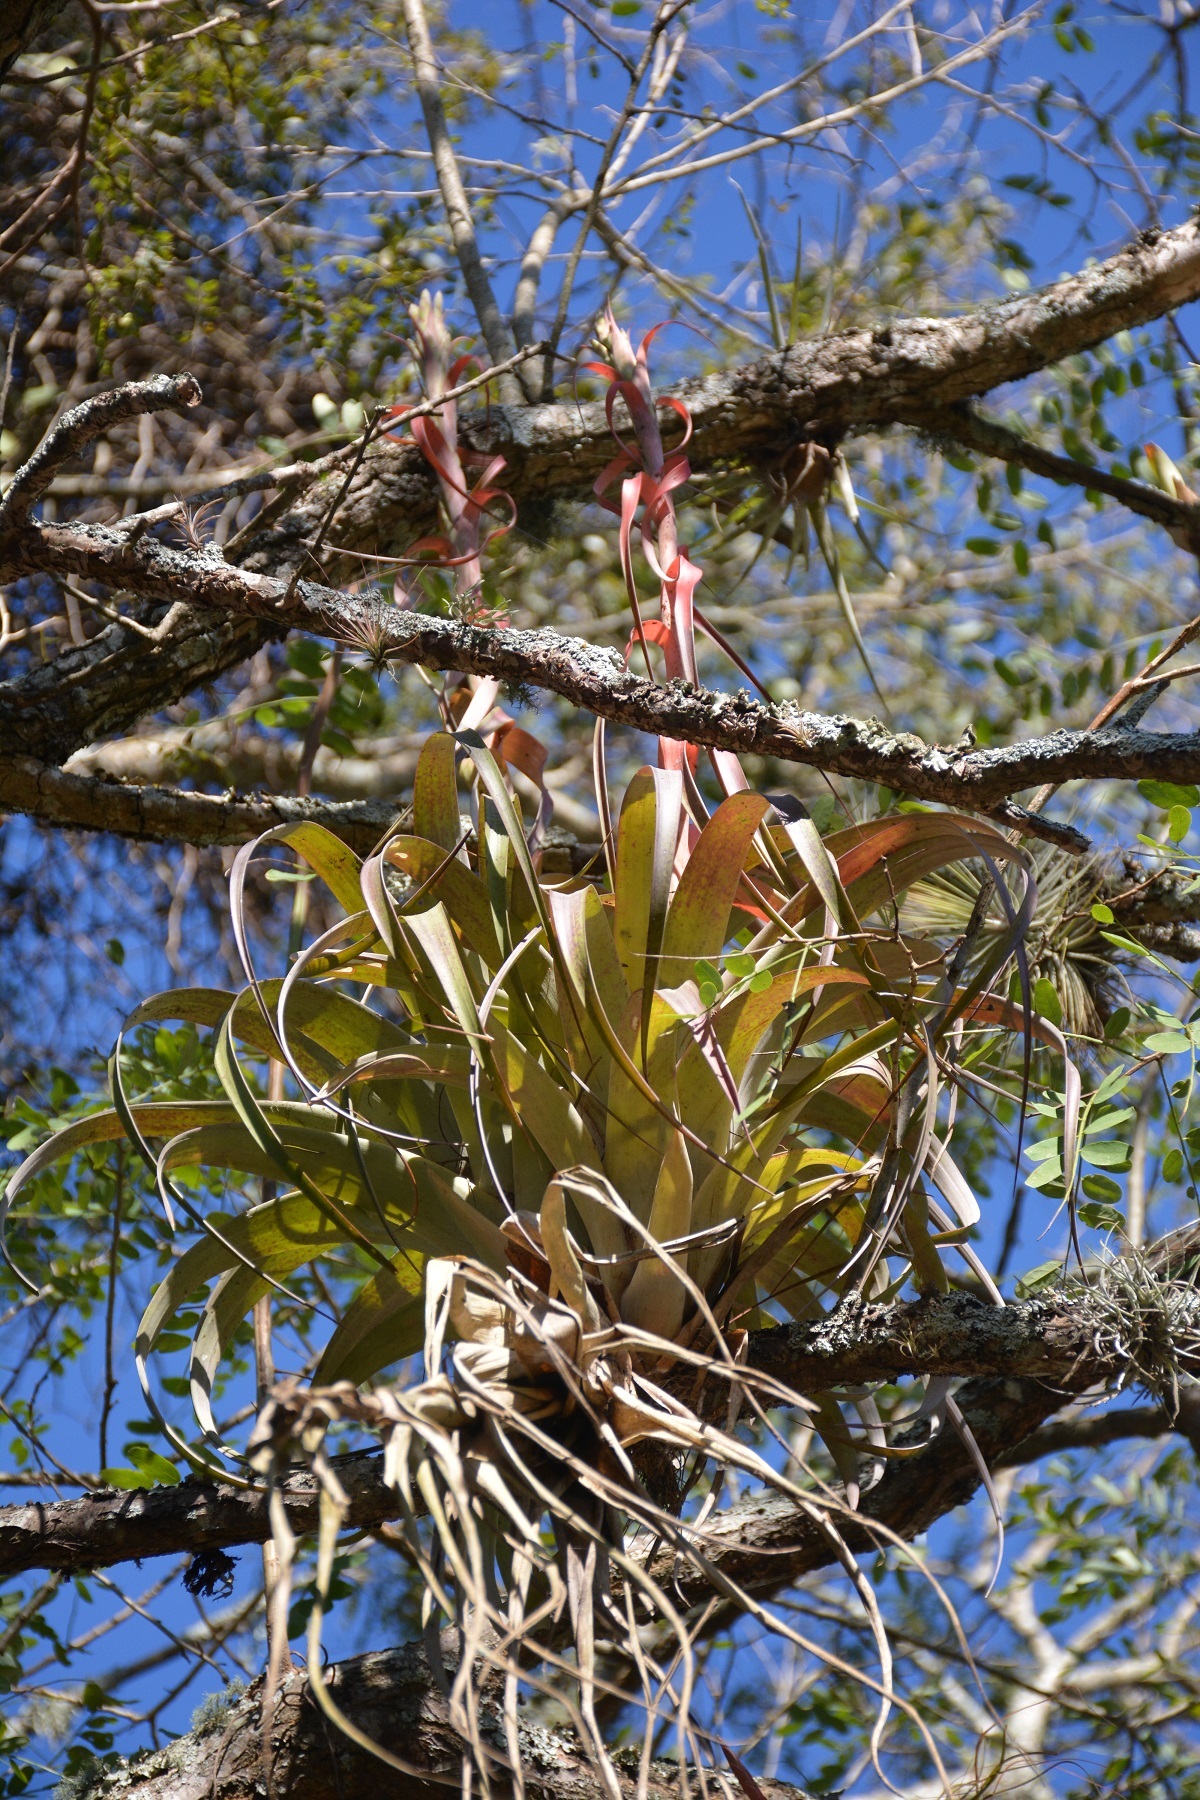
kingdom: Plantae
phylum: Tracheophyta
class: Liliopsida
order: Poales
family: Bromeliaceae
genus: Tillandsia
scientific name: Tillandsia belloensis
